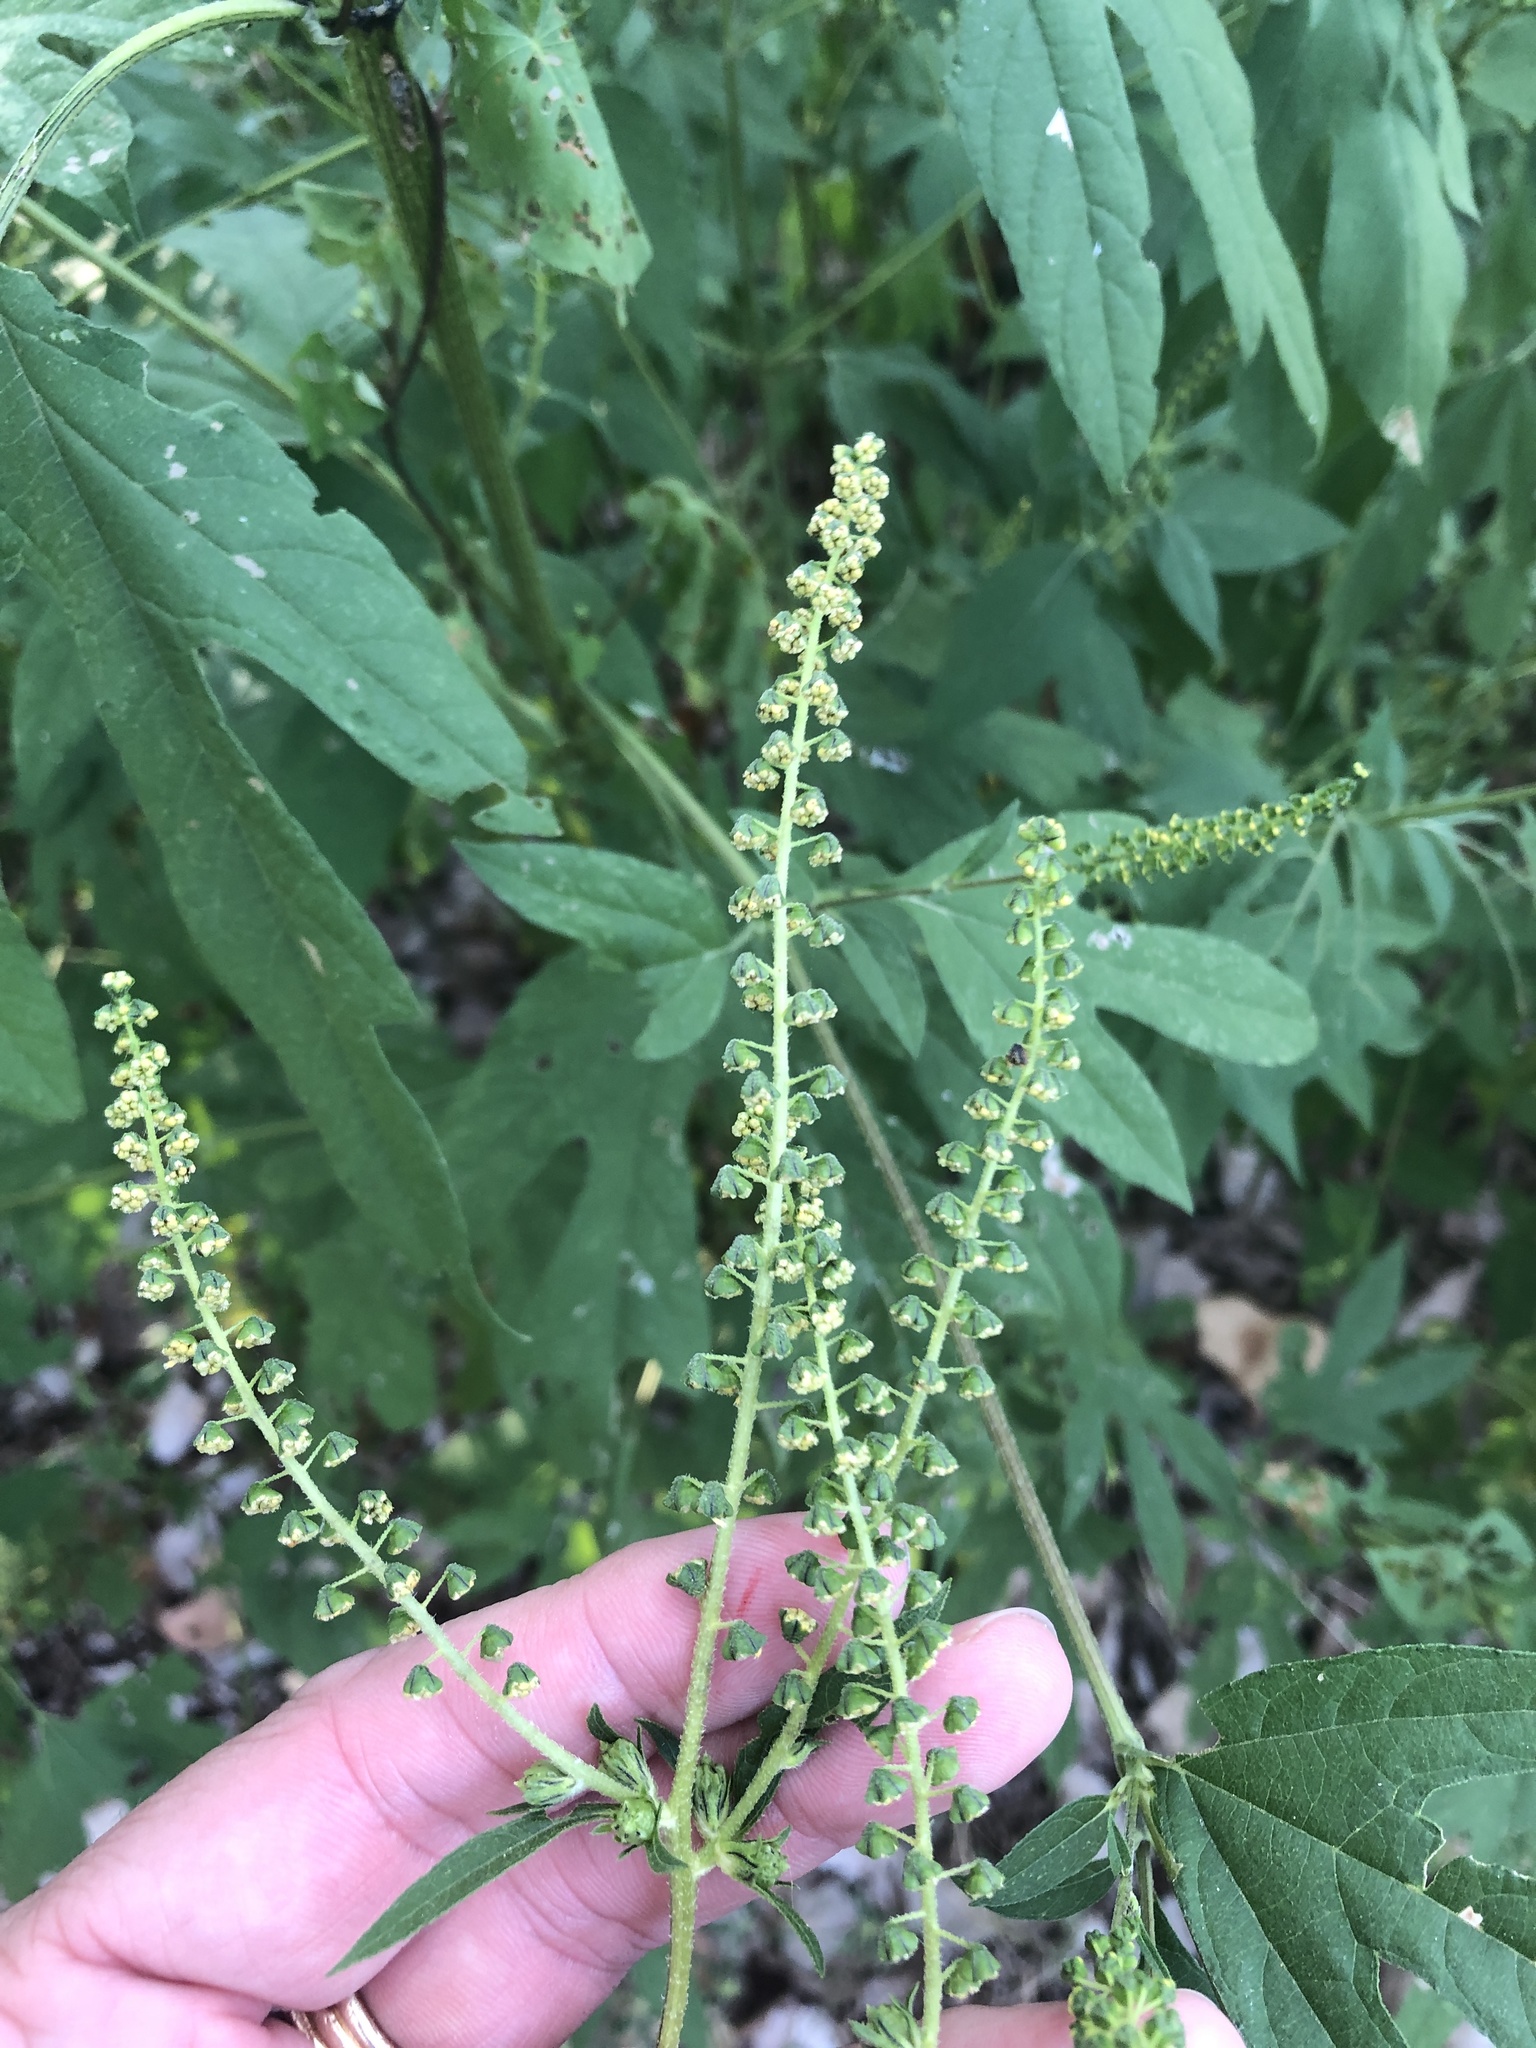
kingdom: Plantae
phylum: Tracheophyta
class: Magnoliopsida
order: Asterales
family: Asteraceae
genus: Ambrosia
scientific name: Ambrosia trifida
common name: Giant ragweed
